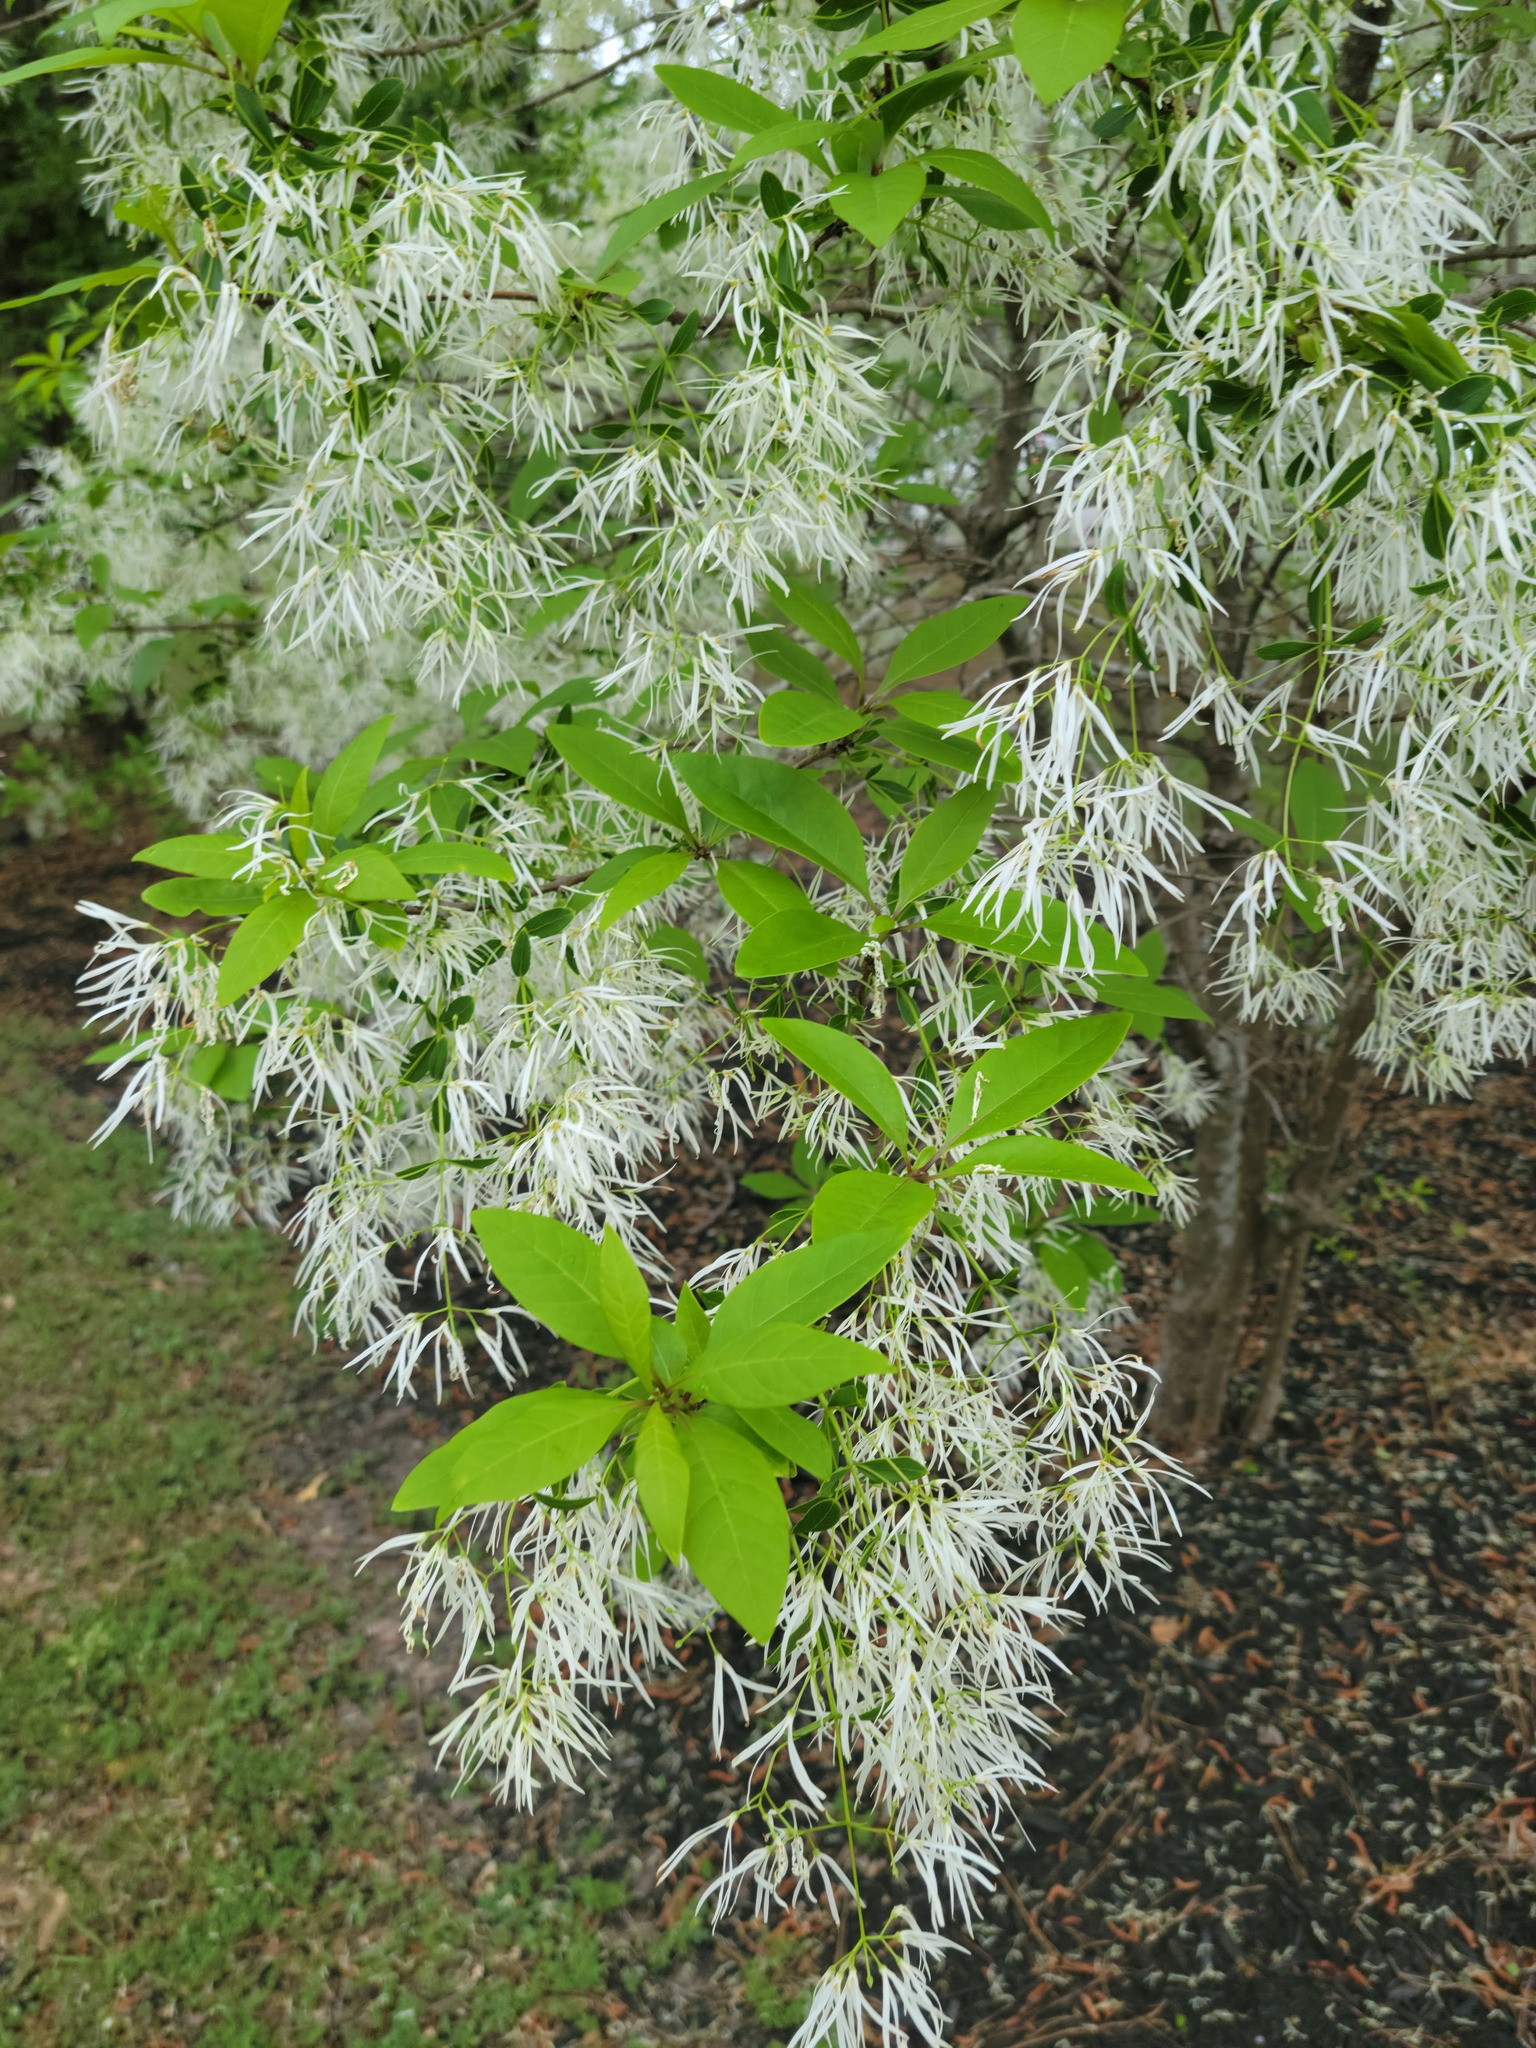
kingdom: Plantae
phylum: Tracheophyta
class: Magnoliopsida
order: Lamiales
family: Oleaceae
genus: Chionanthus
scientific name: Chionanthus virginicus
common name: American fringetree
